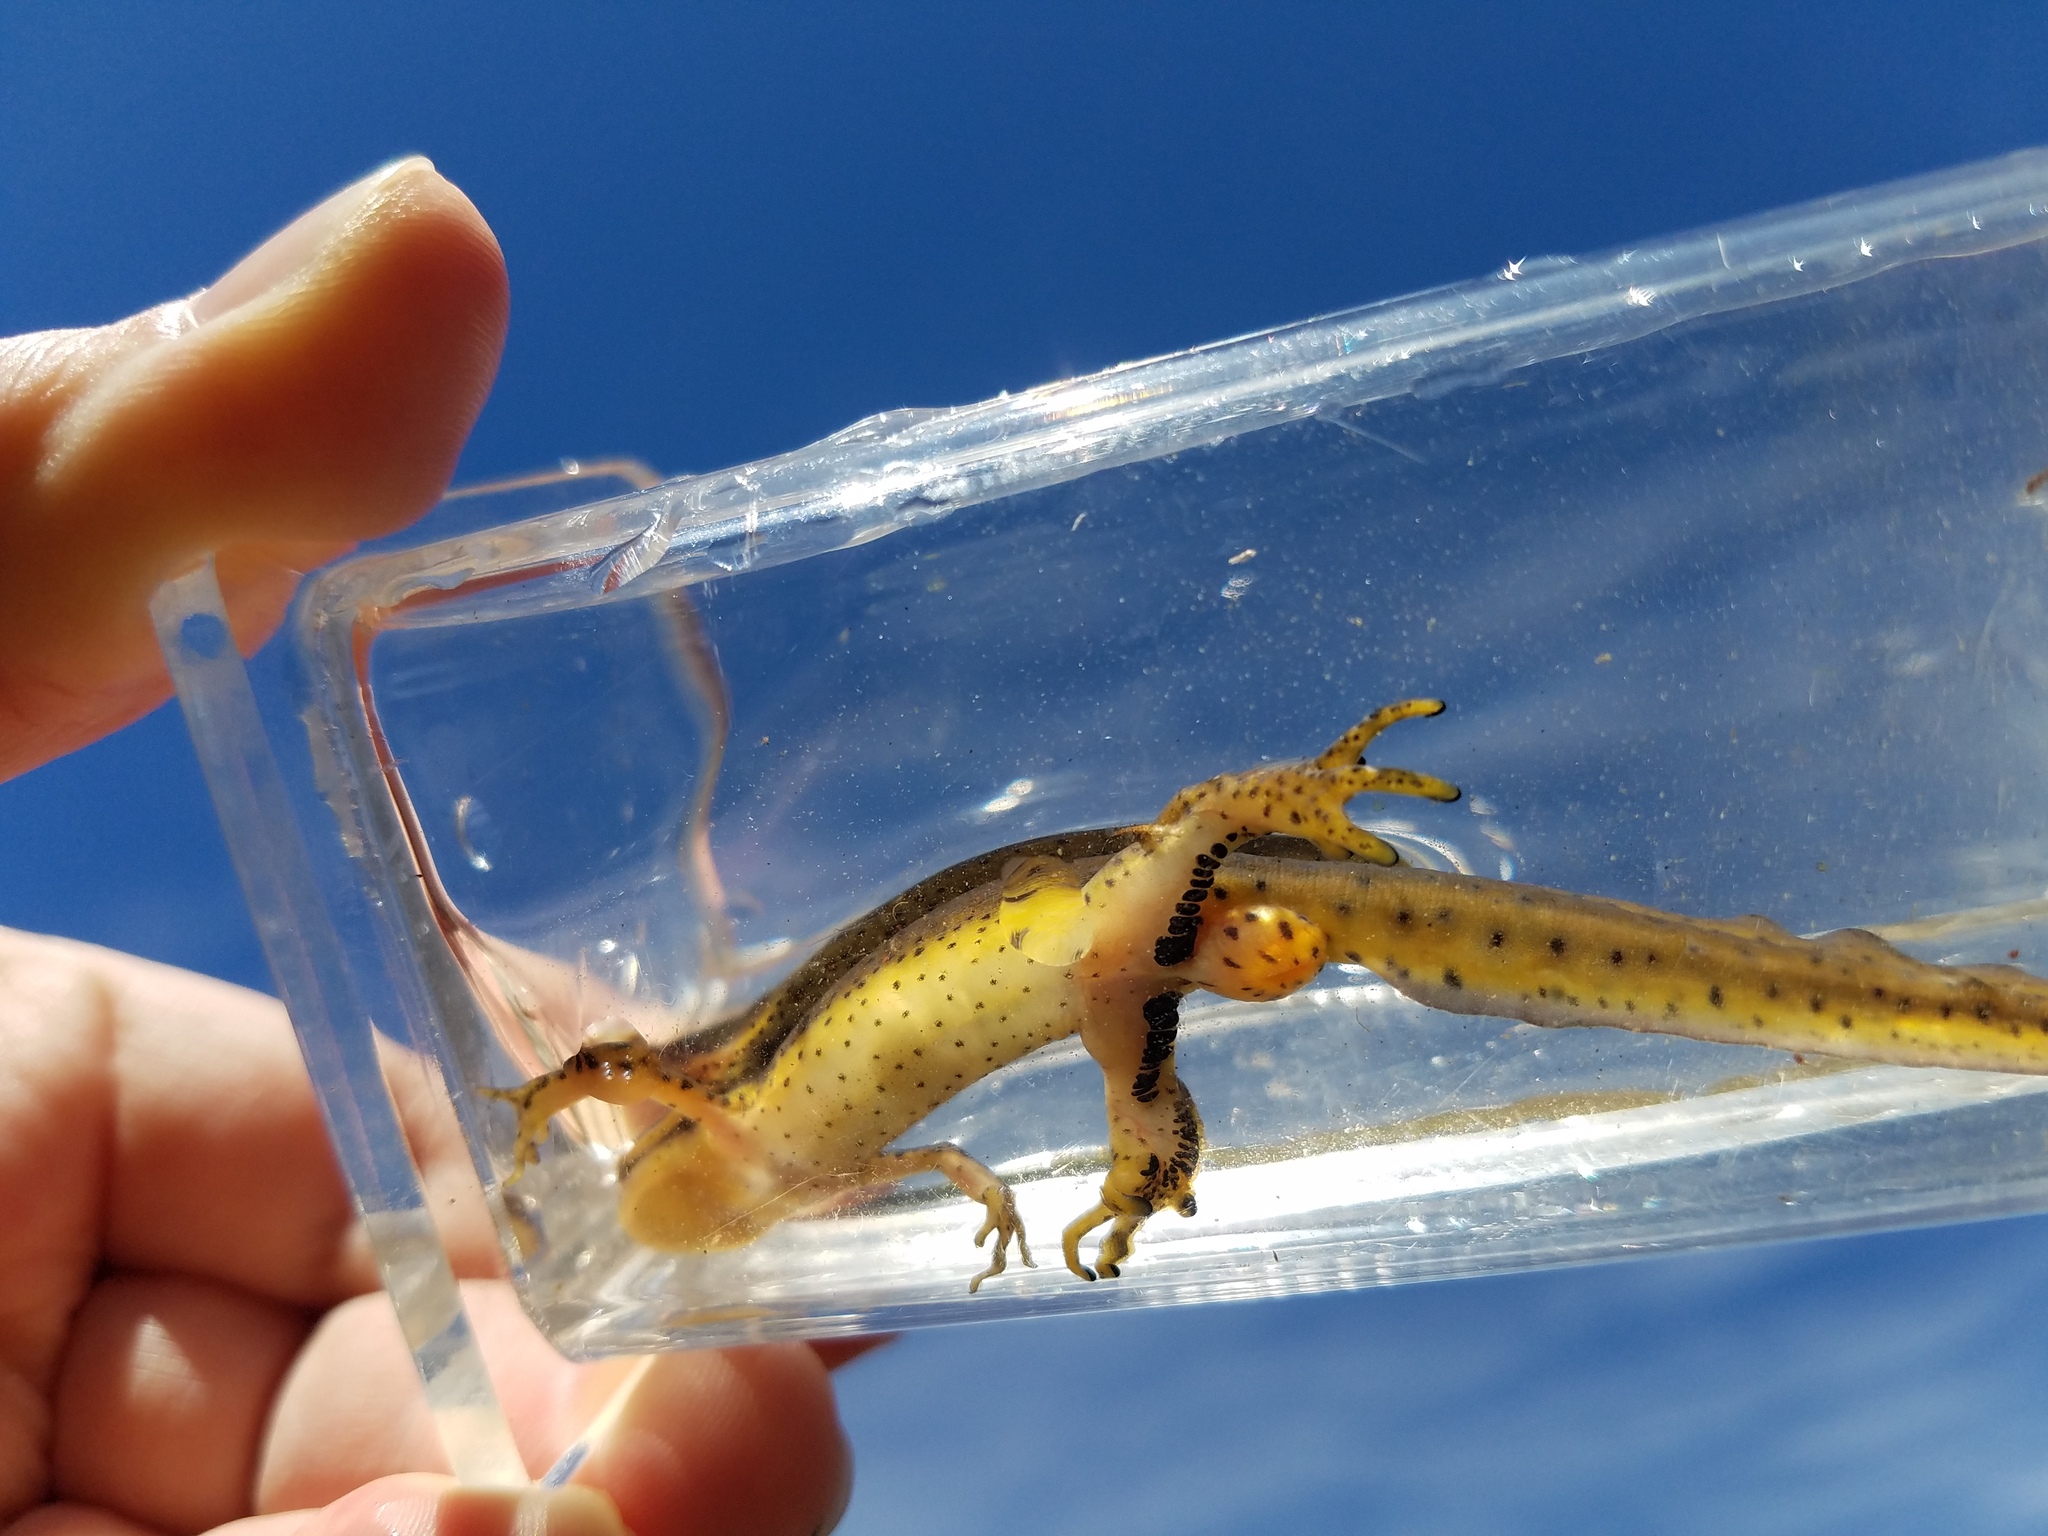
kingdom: Animalia
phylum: Chordata
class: Amphibia
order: Caudata
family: Salamandridae
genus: Notophthalmus
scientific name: Notophthalmus viridescens
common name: Eastern newt
